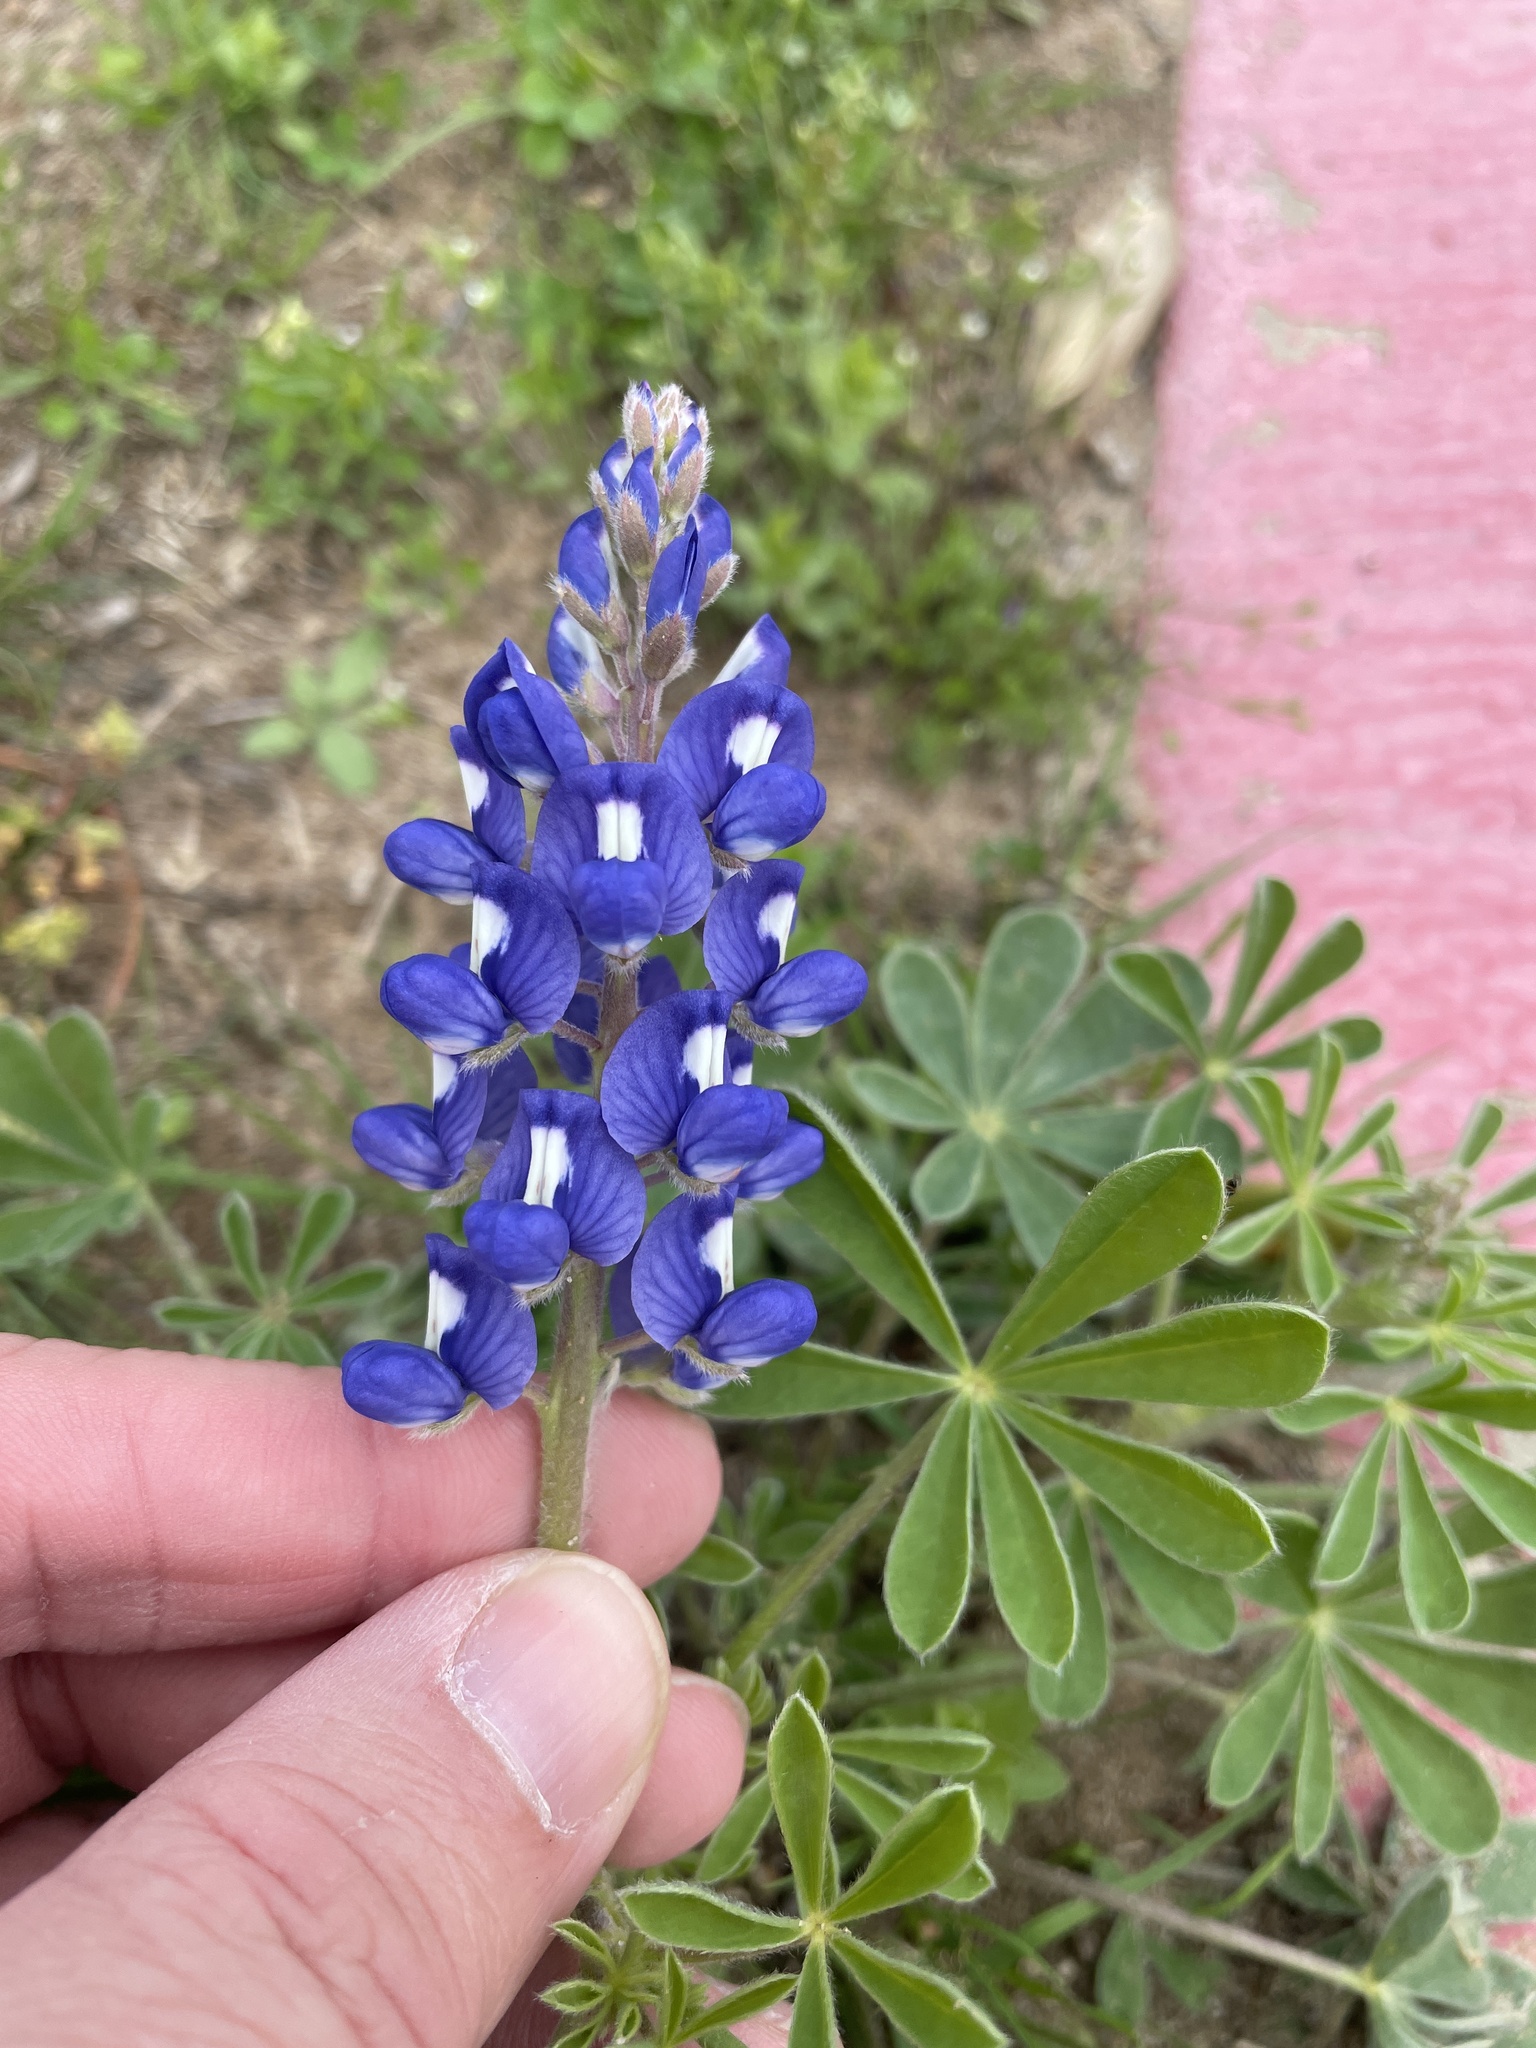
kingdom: Plantae
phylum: Tracheophyta
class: Magnoliopsida
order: Fabales
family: Fabaceae
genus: Lupinus
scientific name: Lupinus subcarnosus
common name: Texas bluebonnet
